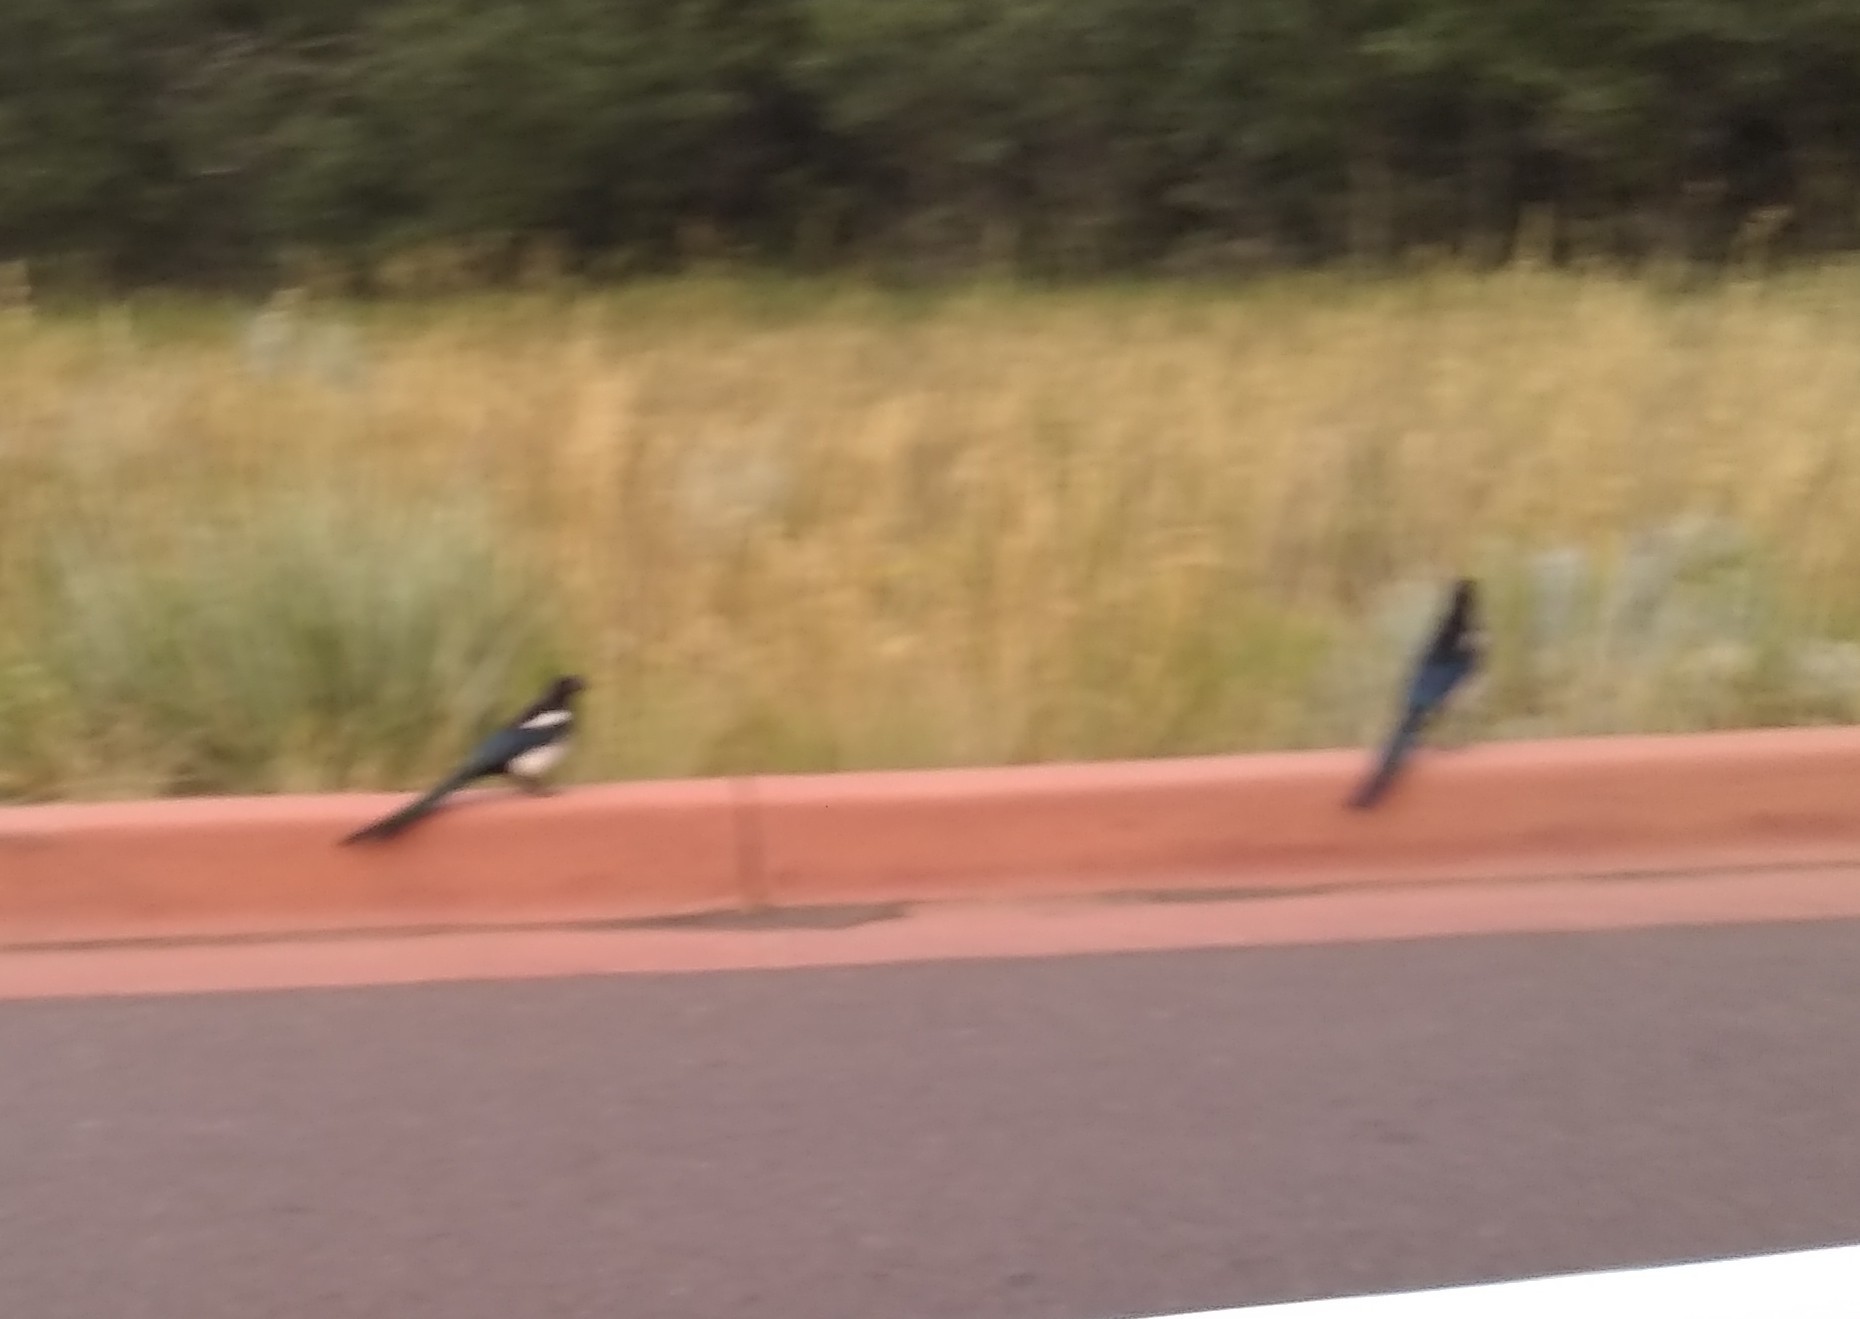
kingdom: Animalia
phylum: Chordata
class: Aves
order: Passeriformes
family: Corvidae
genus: Pica
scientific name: Pica hudsonia
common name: Black-billed magpie
